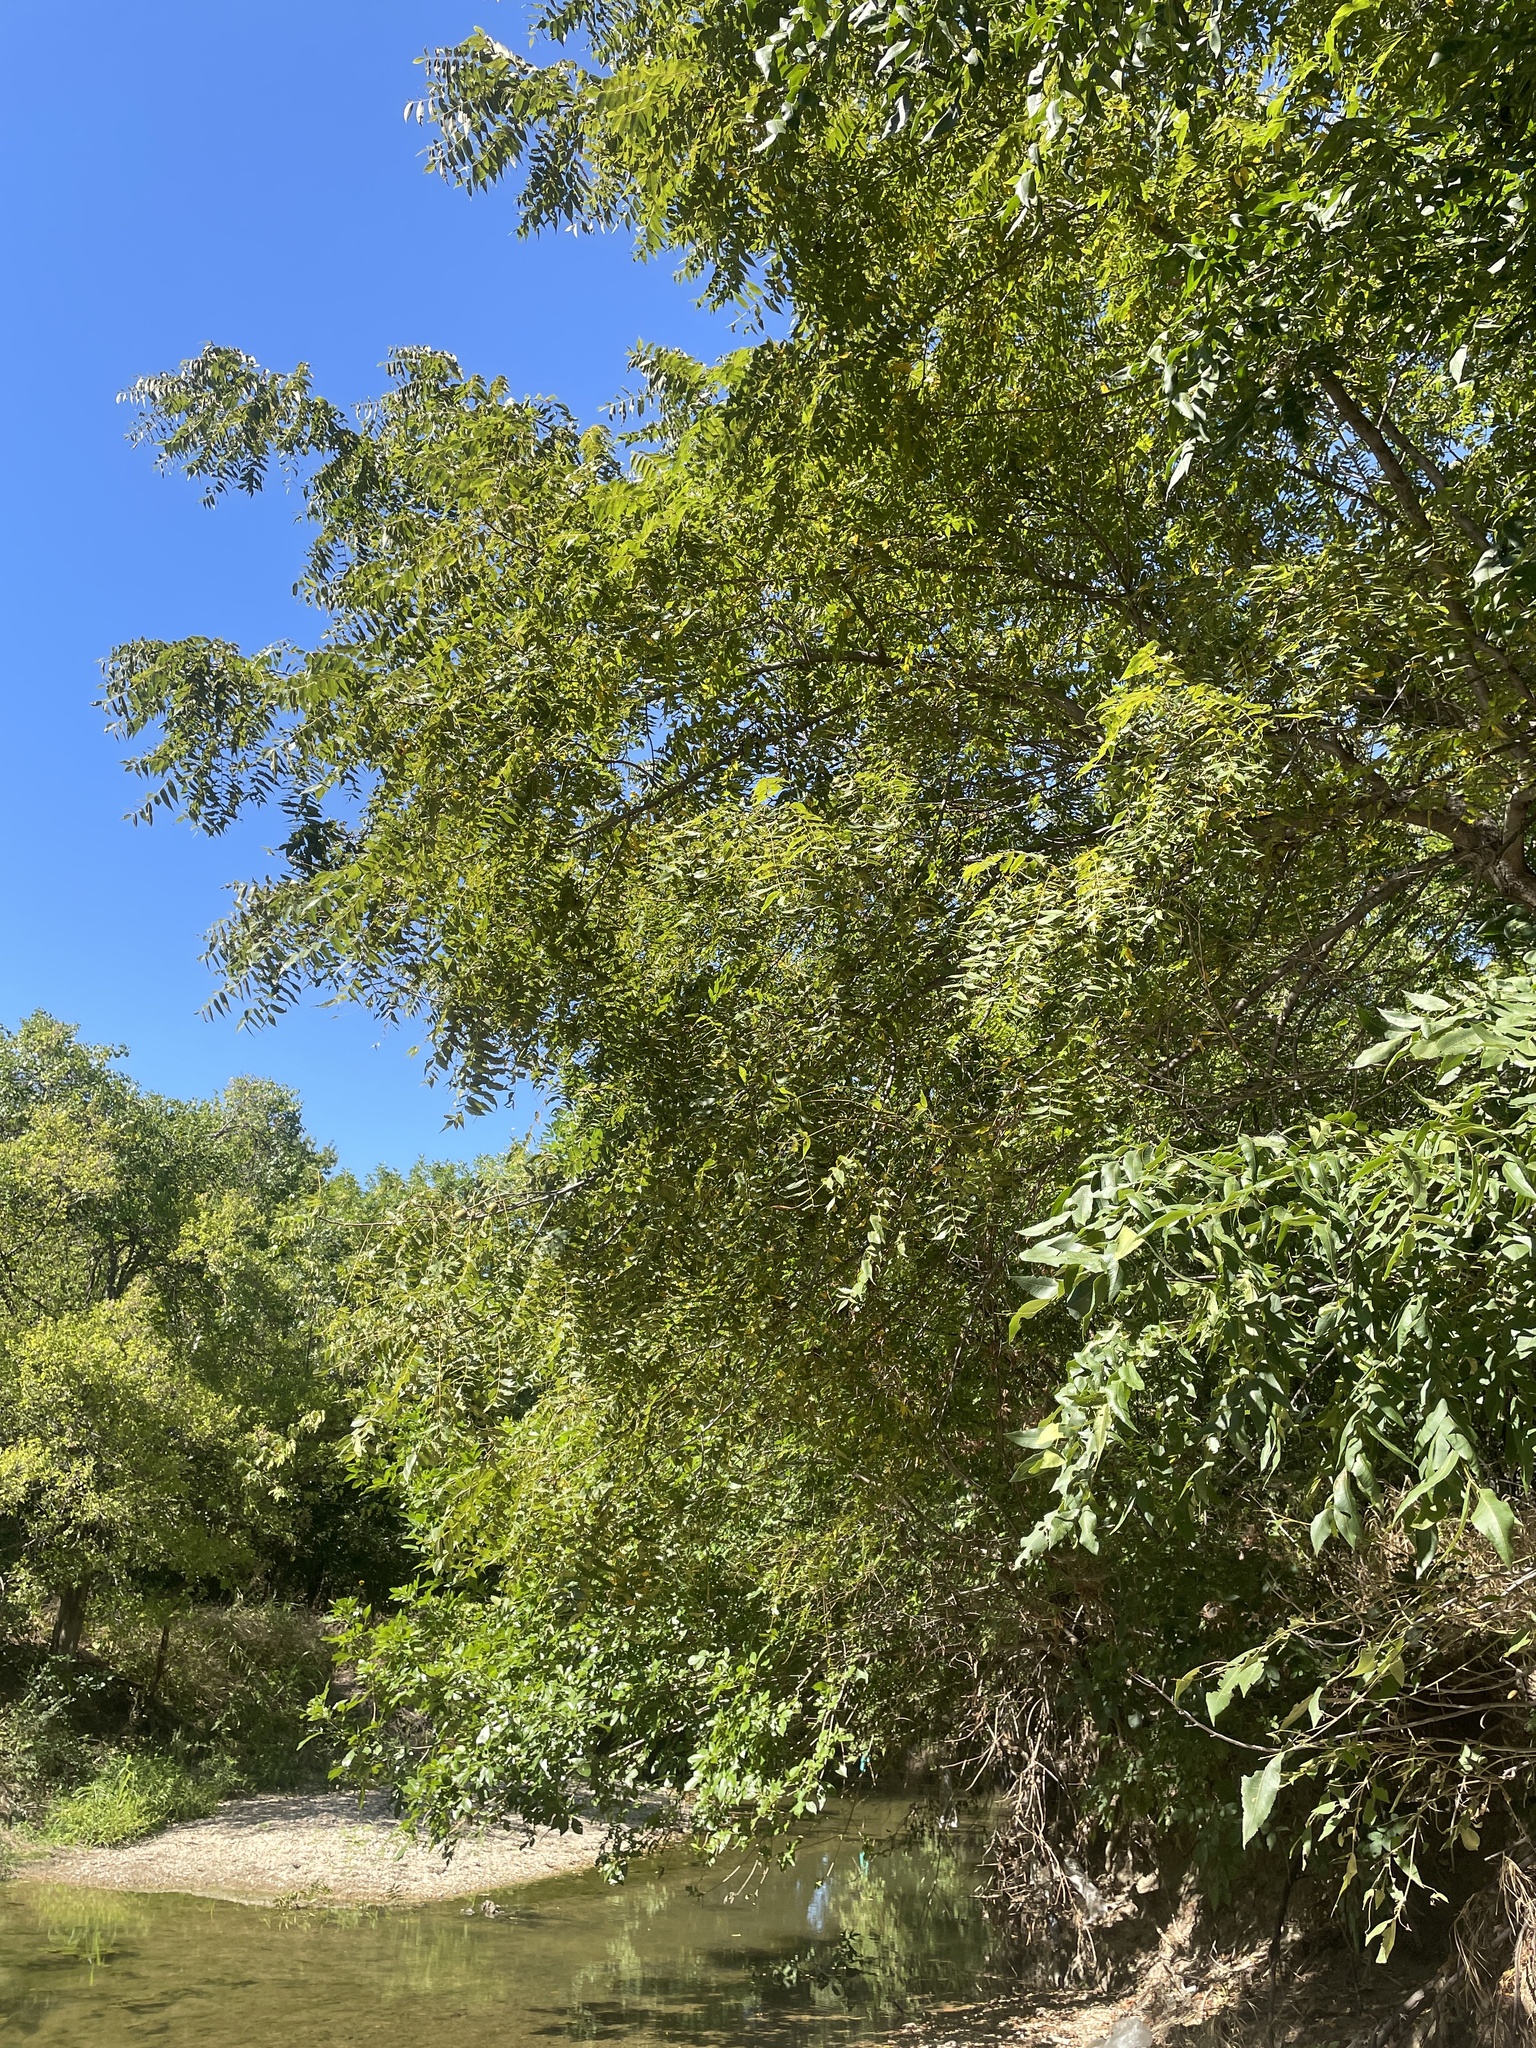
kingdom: Plantae
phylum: Tracheophyta
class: Magnoliopsida
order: Fagales
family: Juglandaceae
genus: Juglans
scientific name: Juglans nigra
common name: Black walnut
